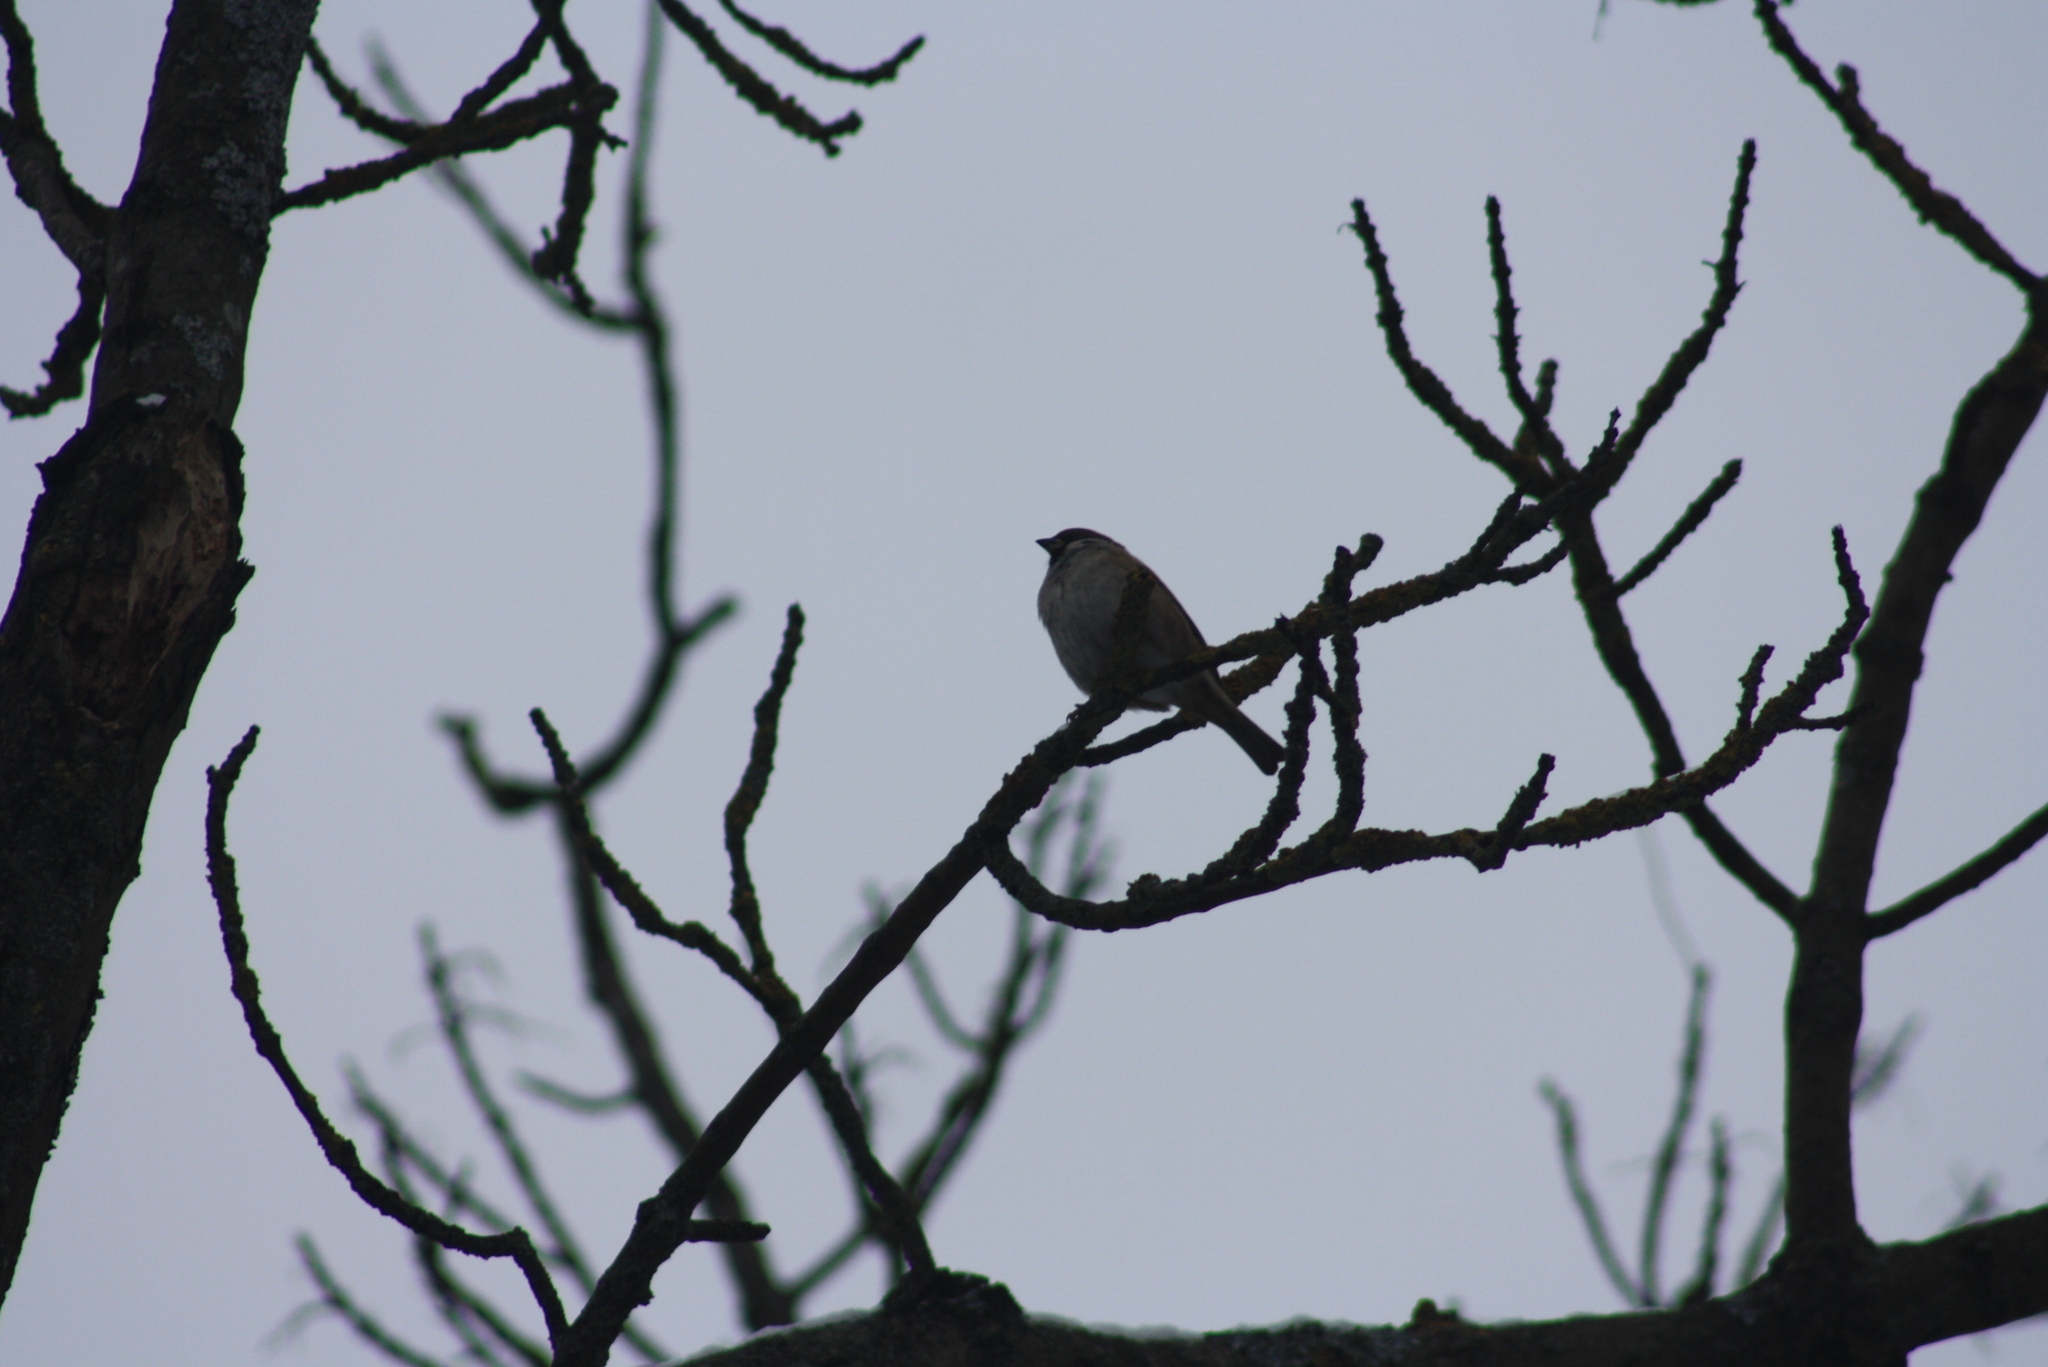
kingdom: Animalia
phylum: Chordata
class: Aves
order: Passeriformes
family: Passeridae
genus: Passer
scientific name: Passer montanus
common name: Eurasian tree sparrow
